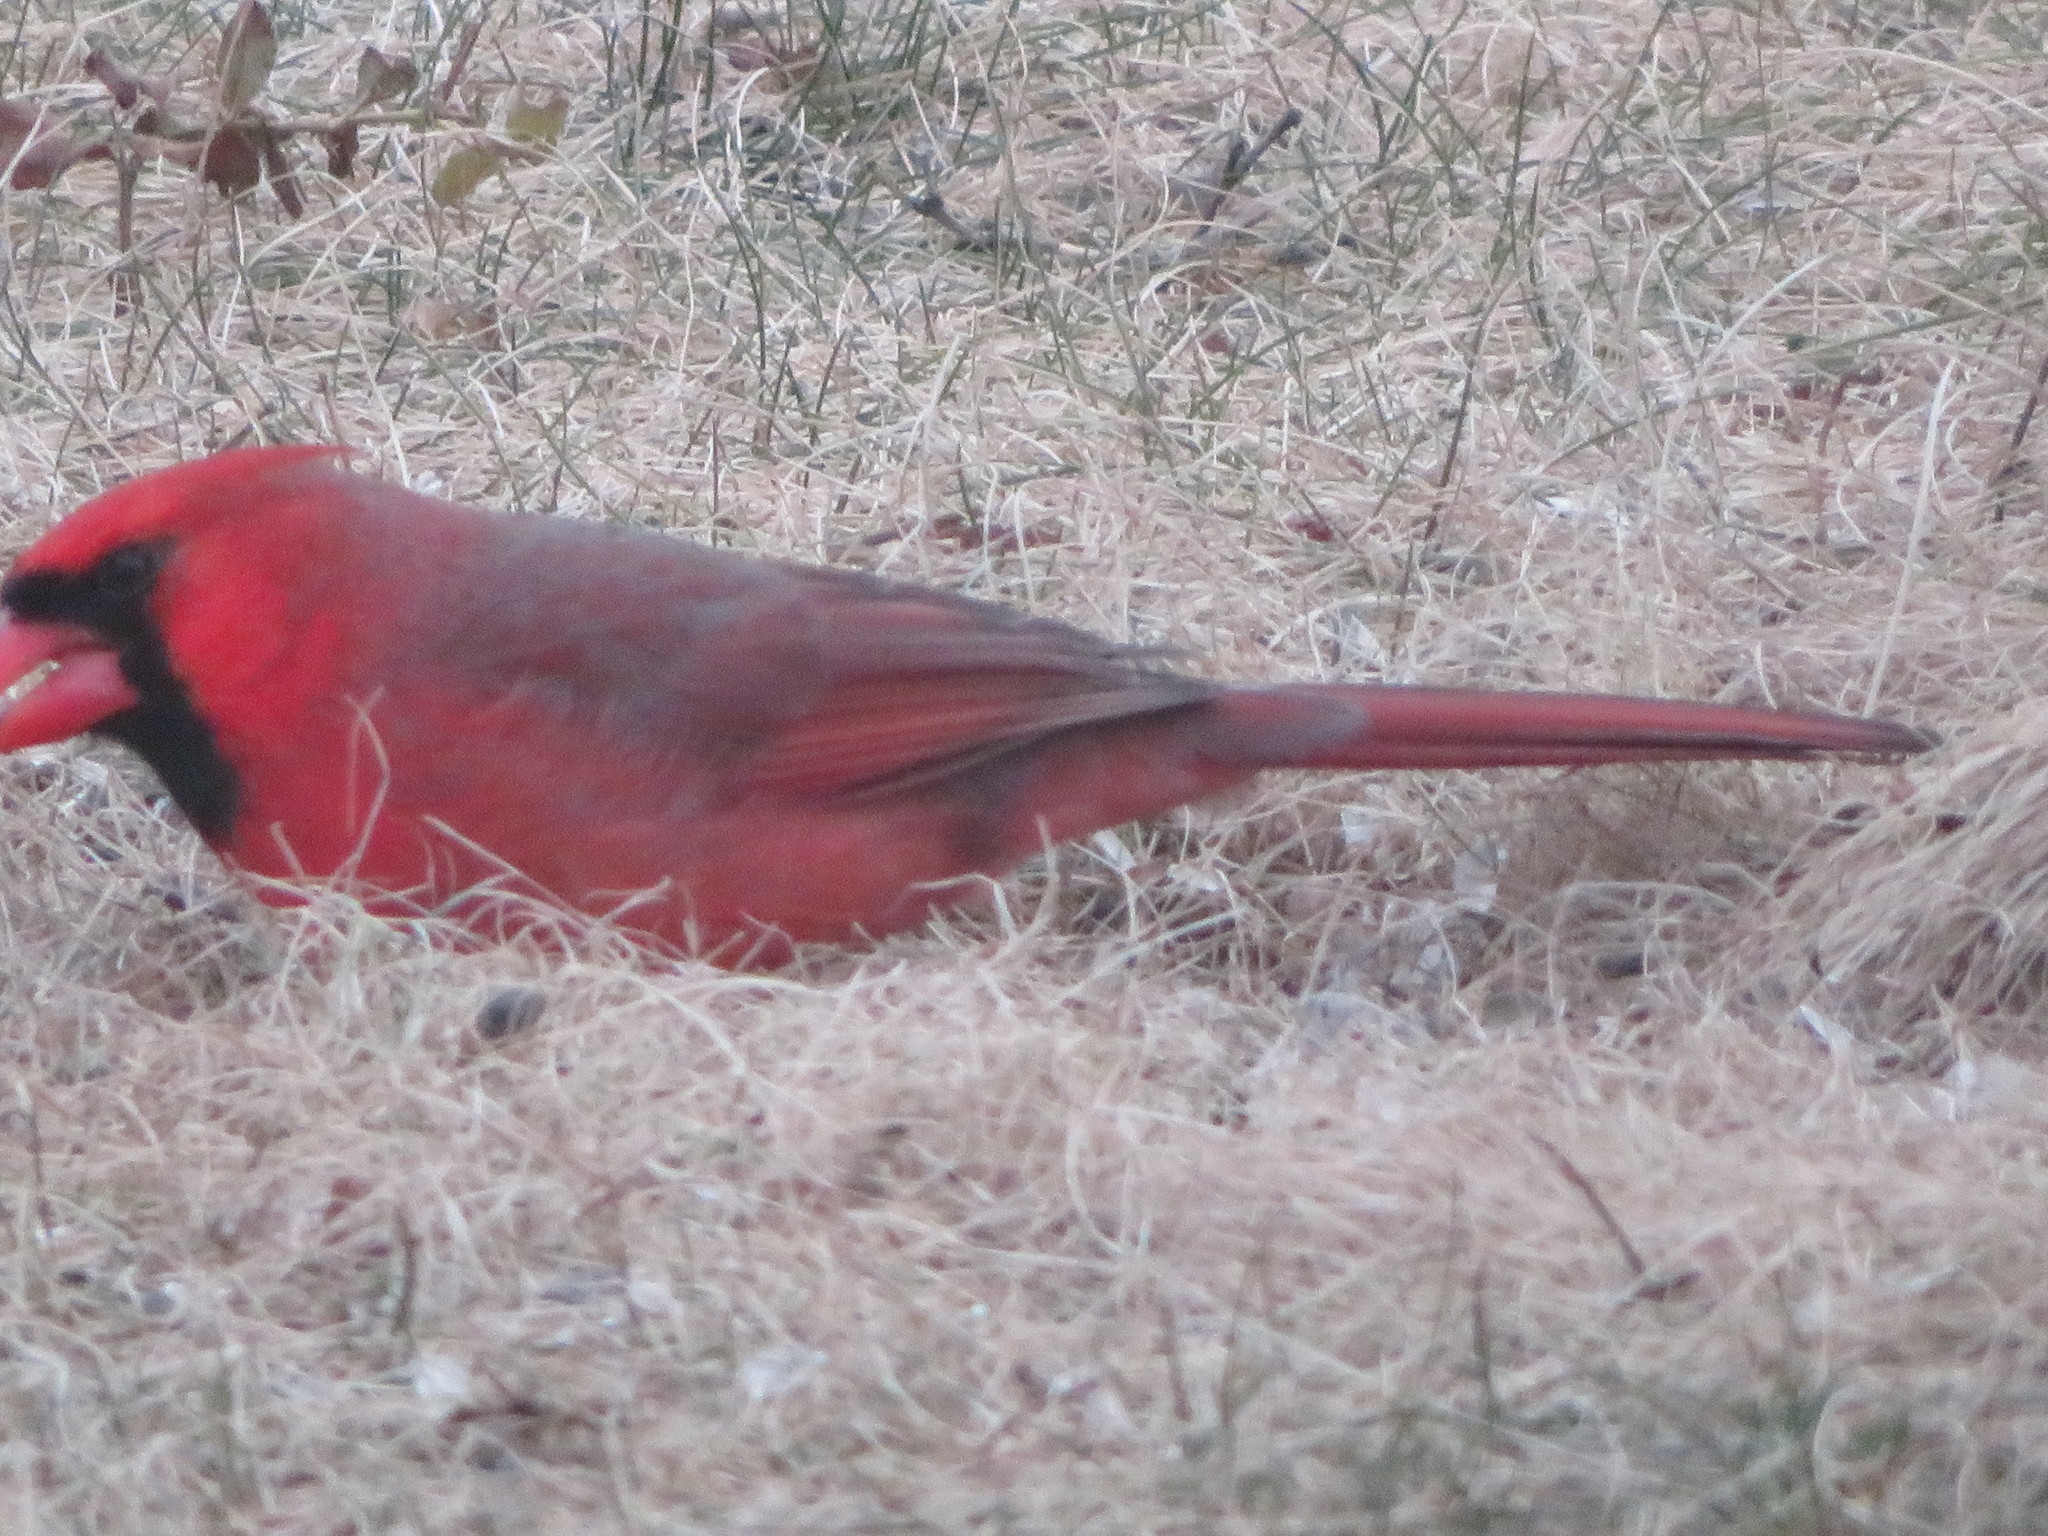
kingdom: Animalia
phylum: Chordata
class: Aves
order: Passeriformes
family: Cardinalidae
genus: Cardinalis
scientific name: Cardinalis cardinalis
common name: Northern cardinal
